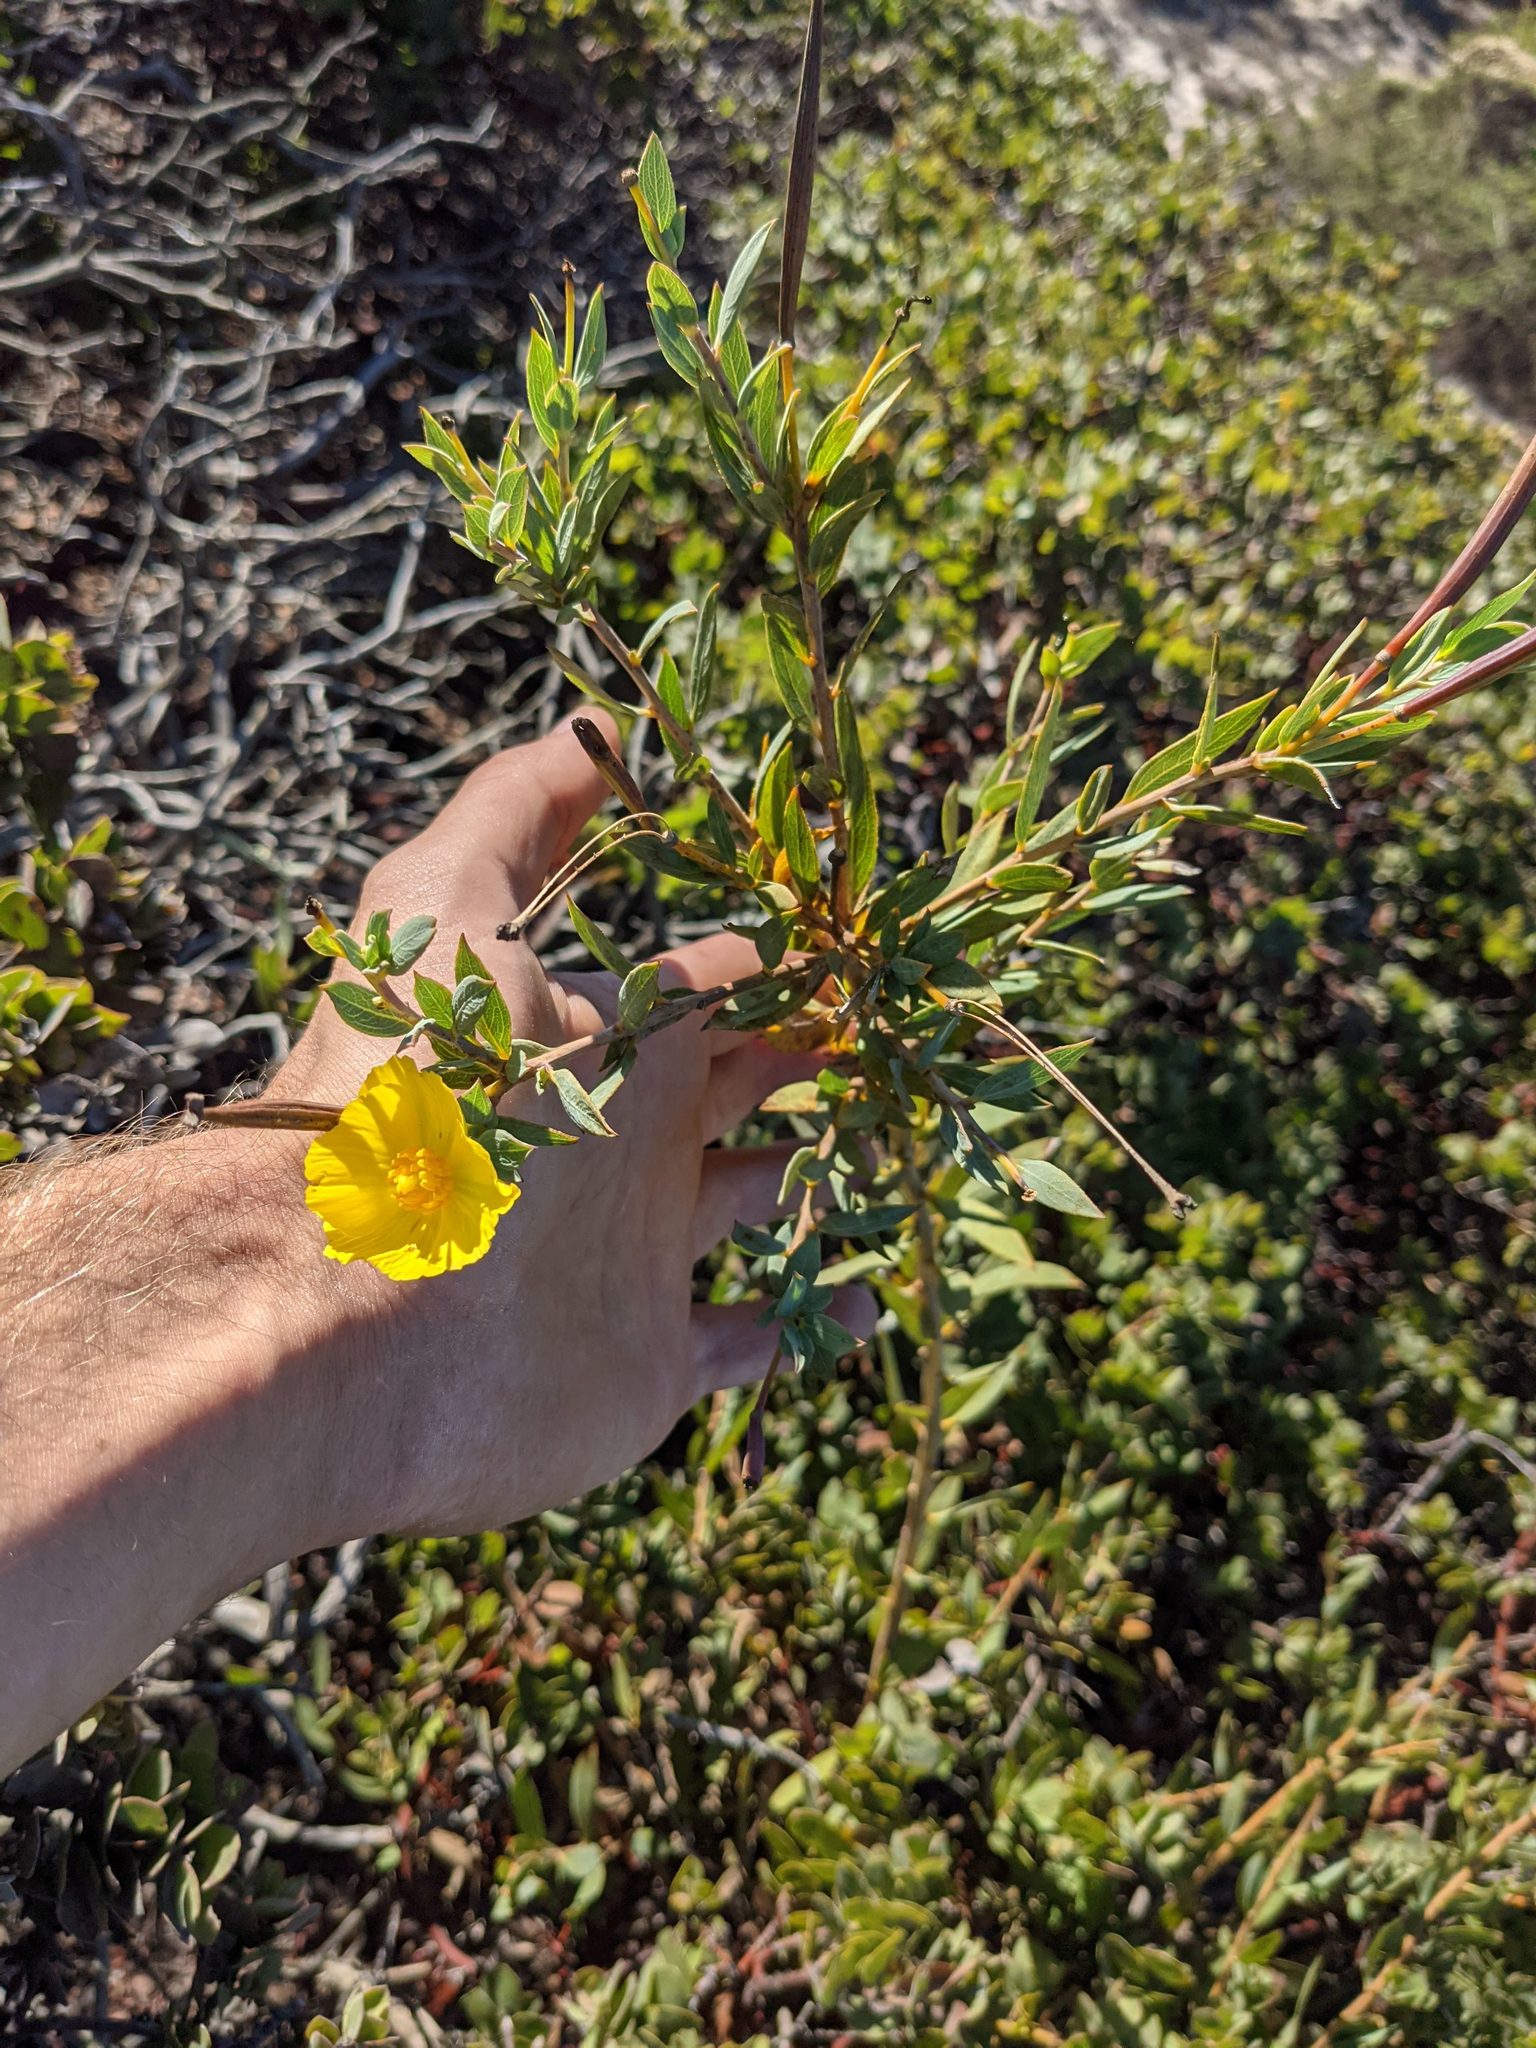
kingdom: Plantae
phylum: Tracheophyta
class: Magnoliopsida
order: Ranunculales
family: Papaveraceae
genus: Dendromecon
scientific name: Dendromecon rigida
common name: Tree poppy
